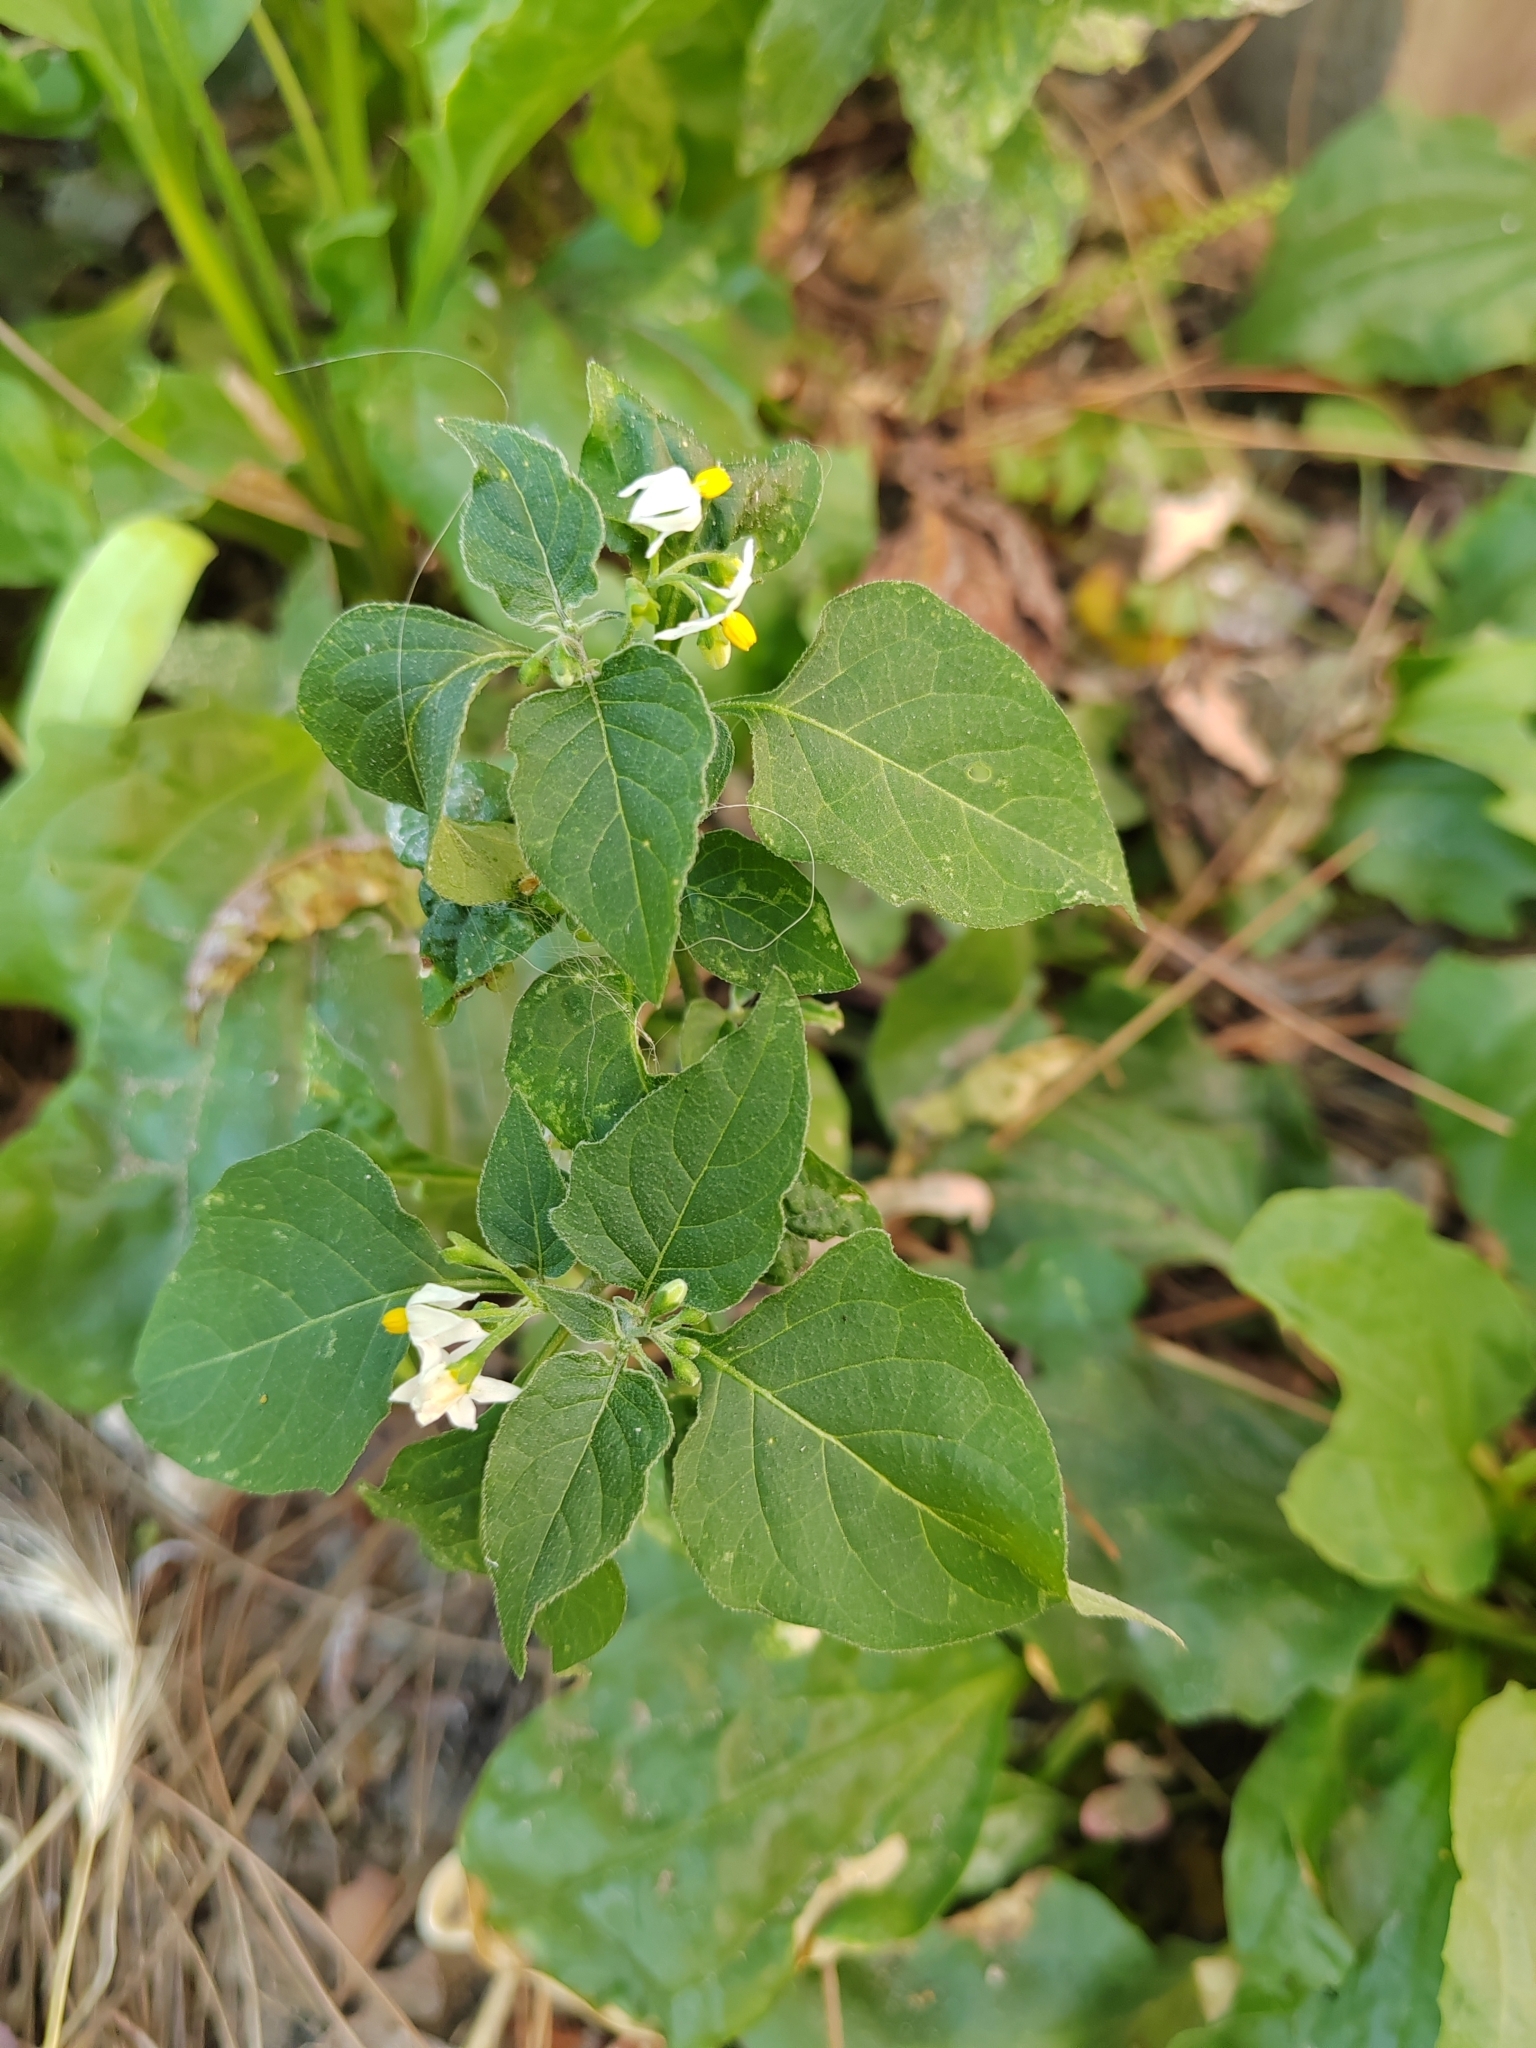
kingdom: Plantae
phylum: Tracheophyta
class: Magnoliopsida
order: Solanales
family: Solanaceae
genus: Solanum
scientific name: Solanum nigrum
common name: Black nightshade
